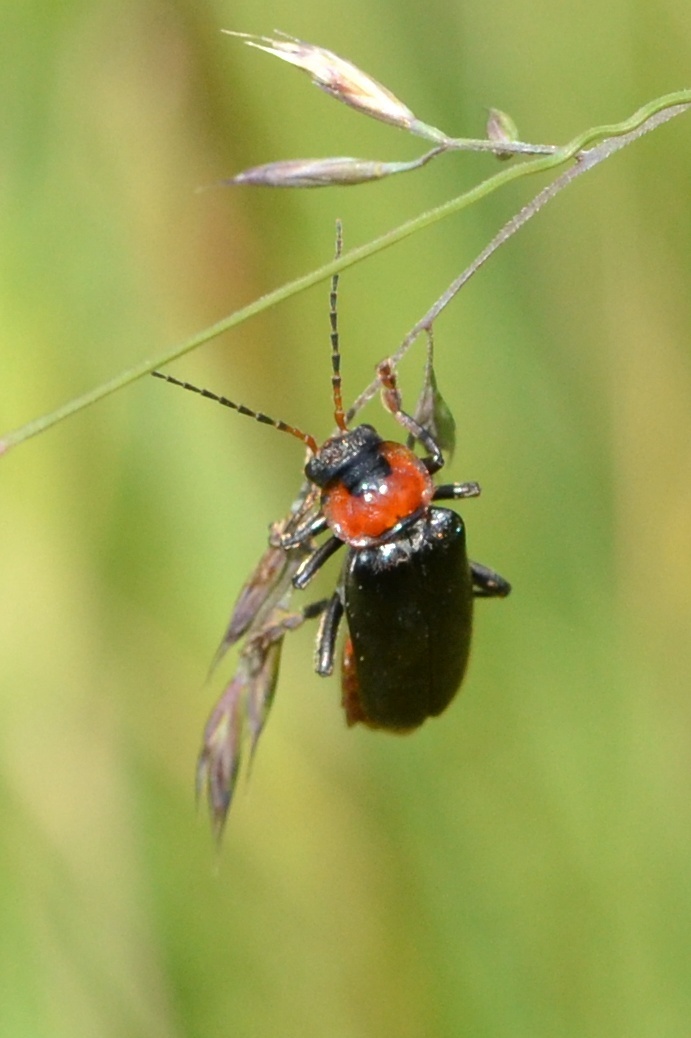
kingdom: Animalia
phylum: Arthropoda
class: Insecta
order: Coleoptera
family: Cantharidae
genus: Cantharis
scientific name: Cantharis fusca
